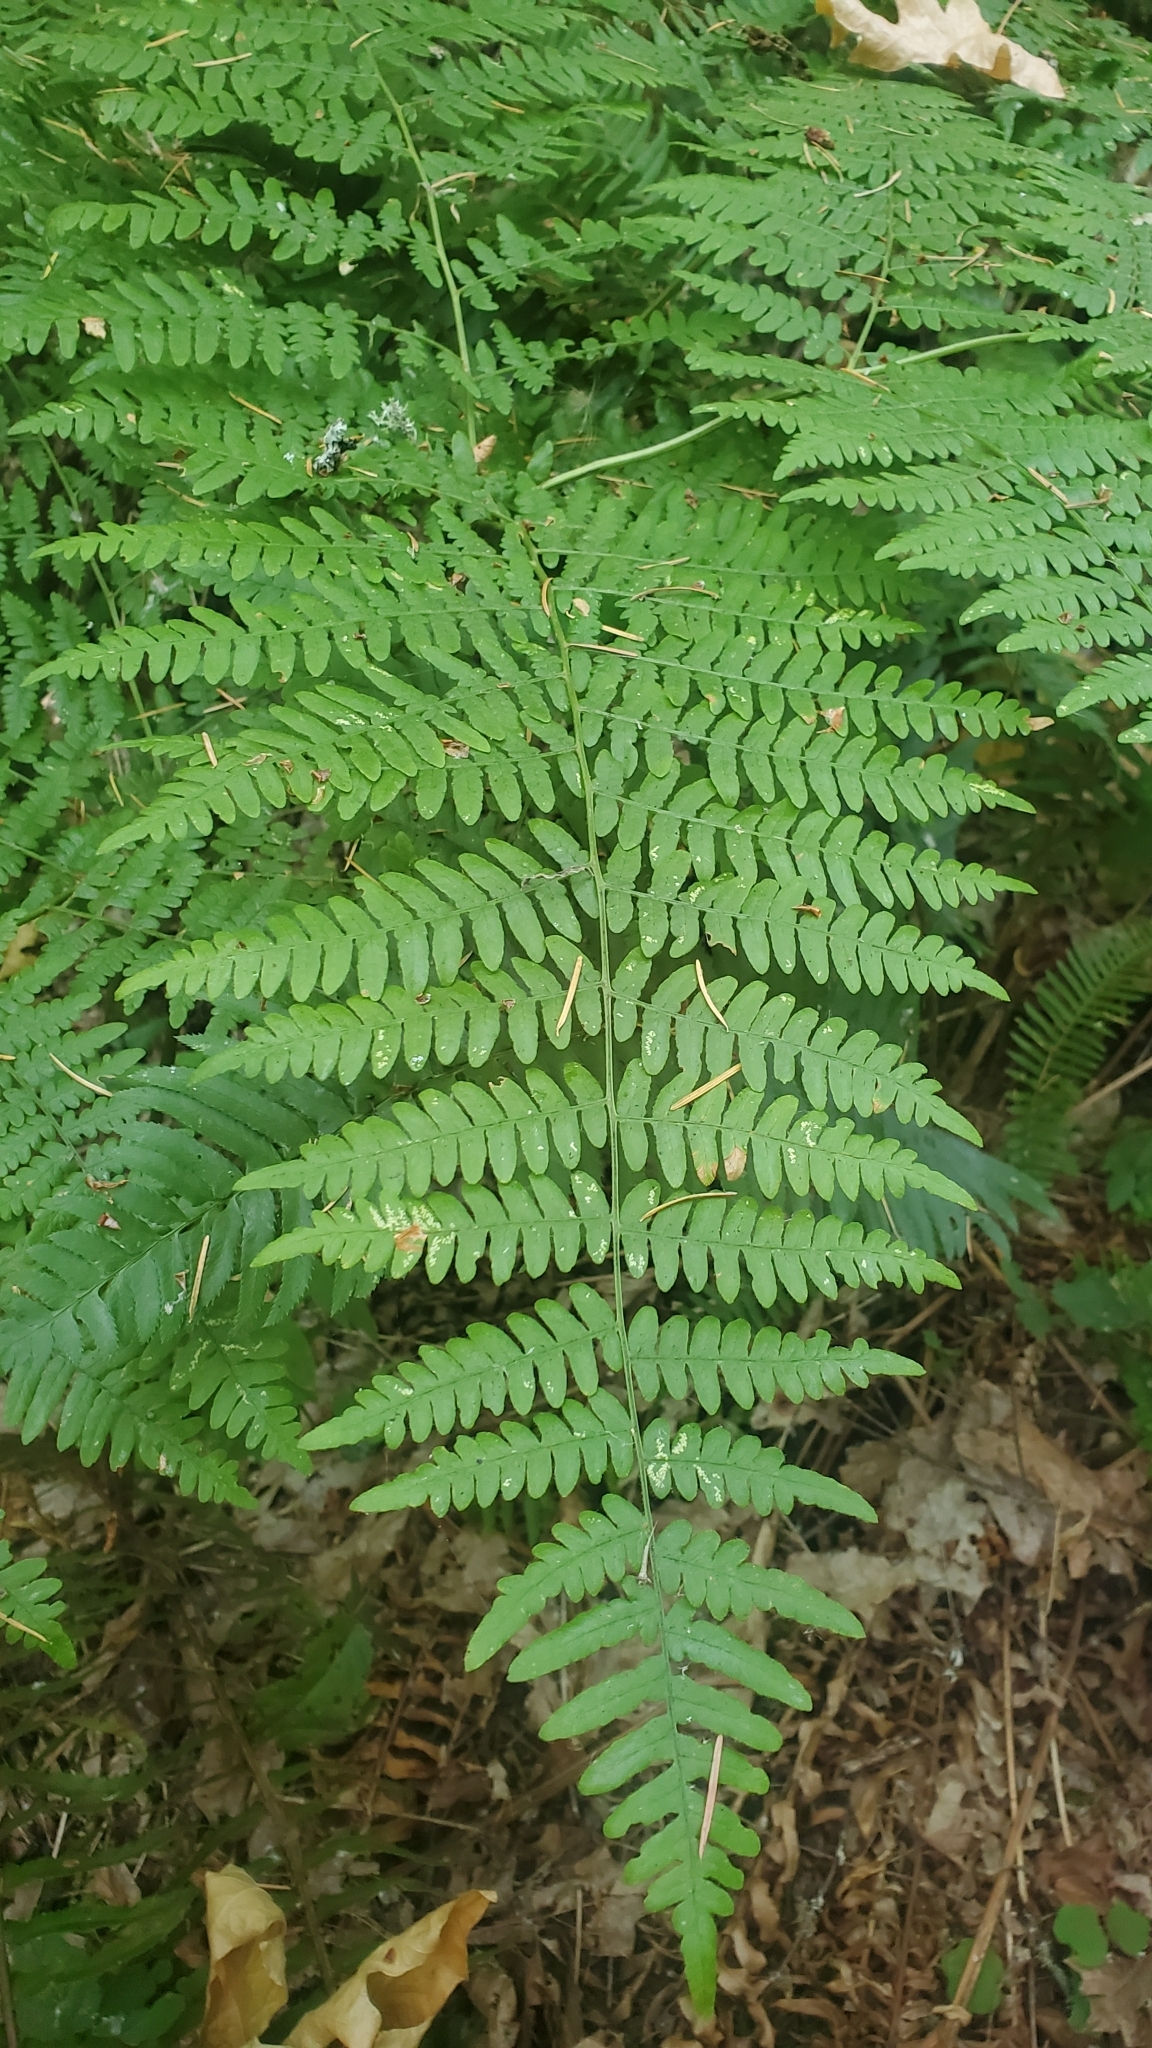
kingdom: Plantae
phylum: Tracheophyta
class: Polypodiopsida
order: Polypodiales
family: Dennstaedtiaceae
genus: Pteridium
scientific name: Pteridium aquilinum
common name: Bracken
